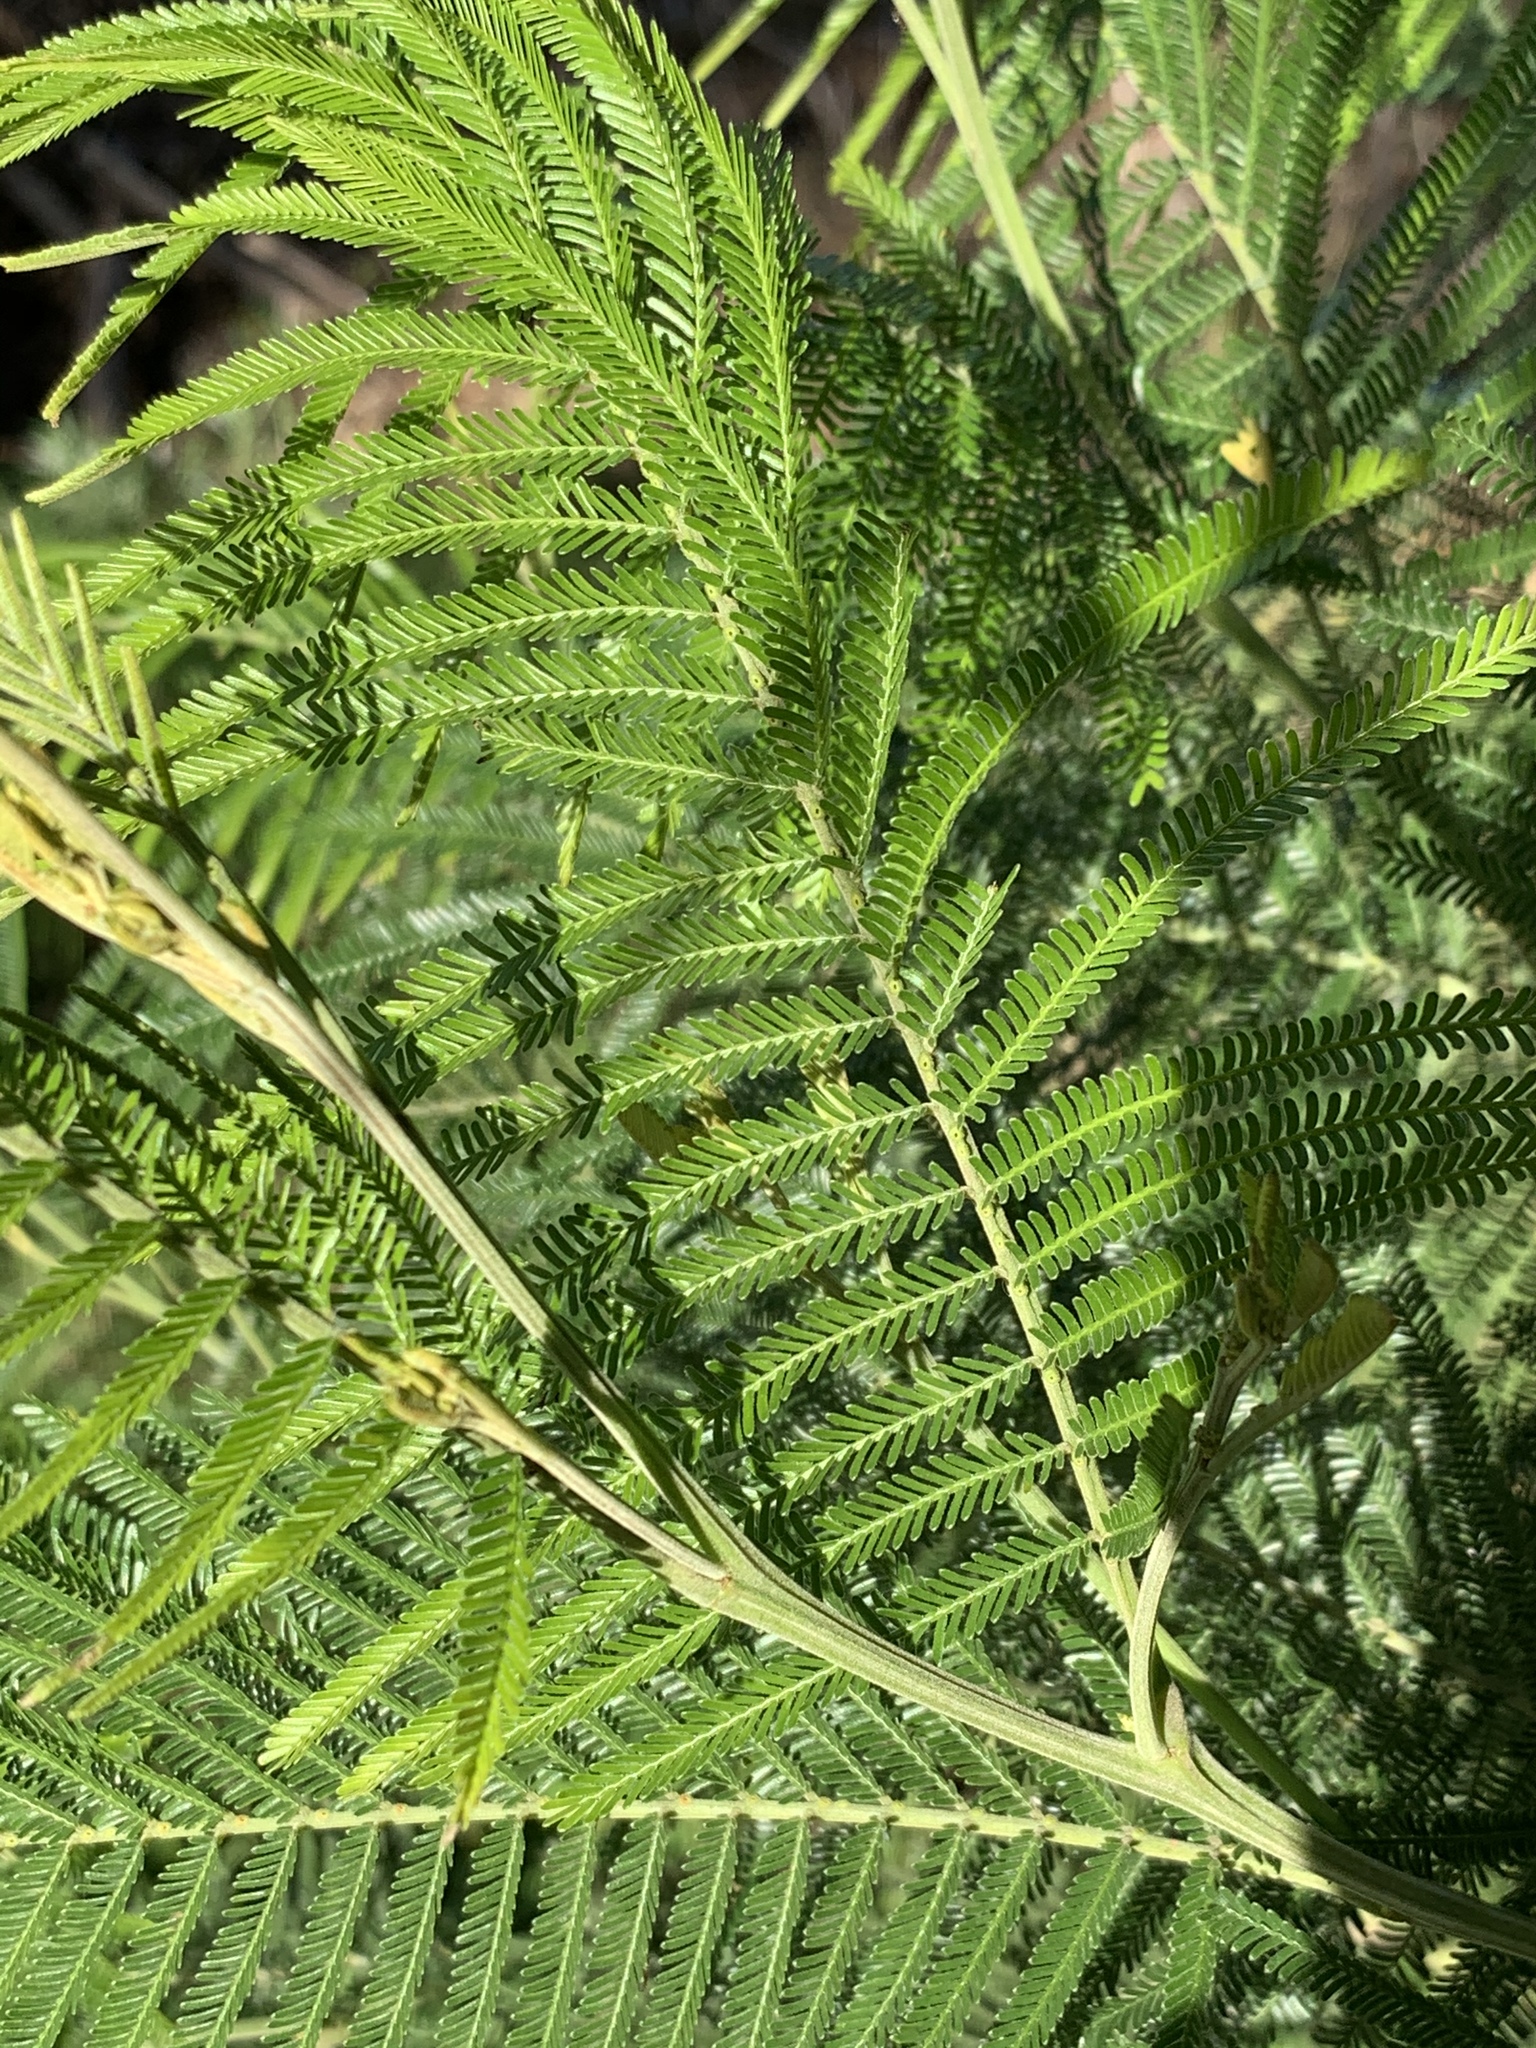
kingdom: Plantae
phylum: Tracheophyta
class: Magnoliopsida
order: Fabales
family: Fabaceae
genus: Acacia
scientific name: Acacia mearnsii
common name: Black wattle
